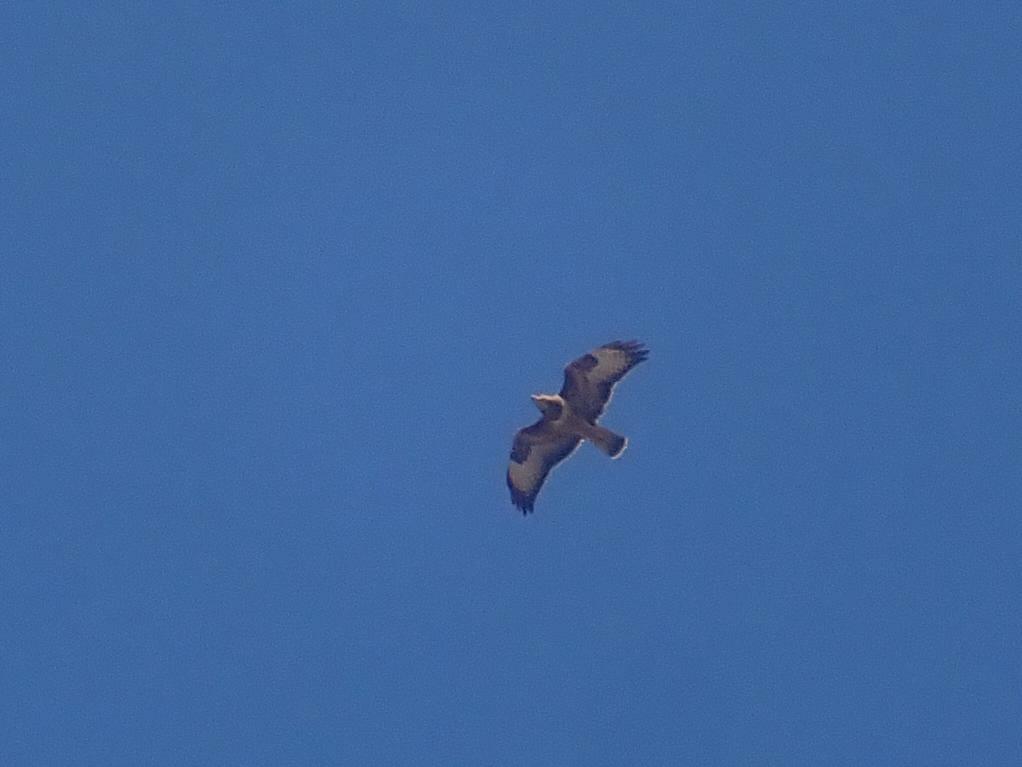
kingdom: Animalia
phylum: Chordata
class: Aves
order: Accipitriformes
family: Accipitridae
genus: Buteo
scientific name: Buteo buteo
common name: Common buzzard
